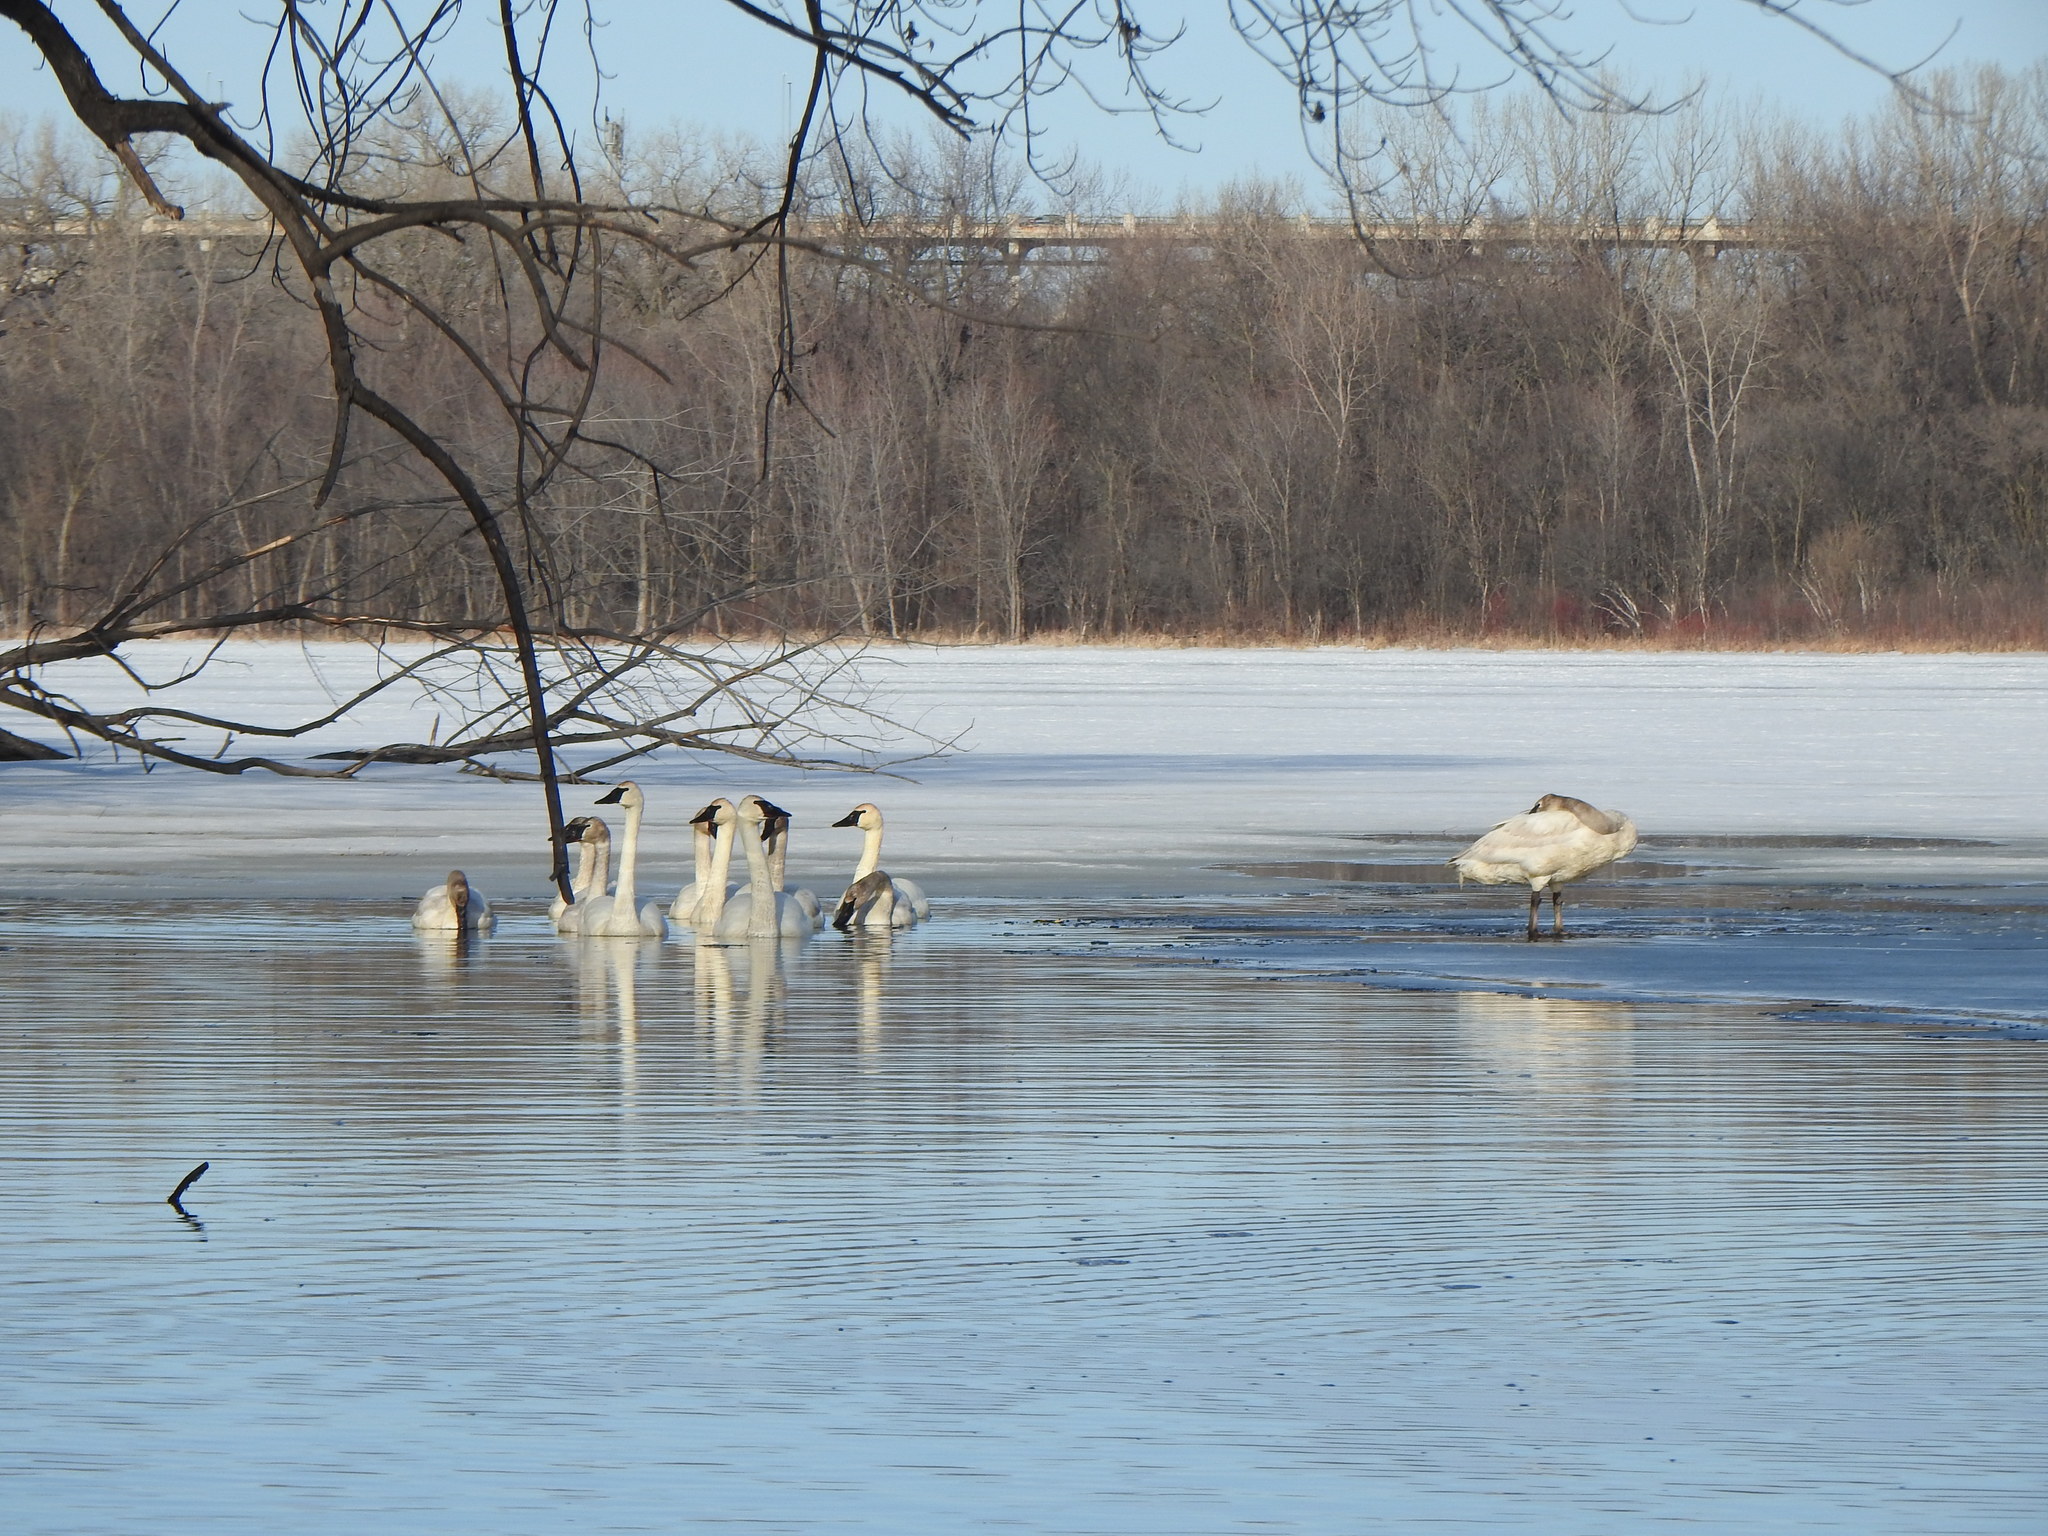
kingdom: Animalia
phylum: Chordata
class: Aves
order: Anseriformes
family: Anatidae
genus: Cygnus
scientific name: Cygnus buccinator
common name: Trumpeter swan
